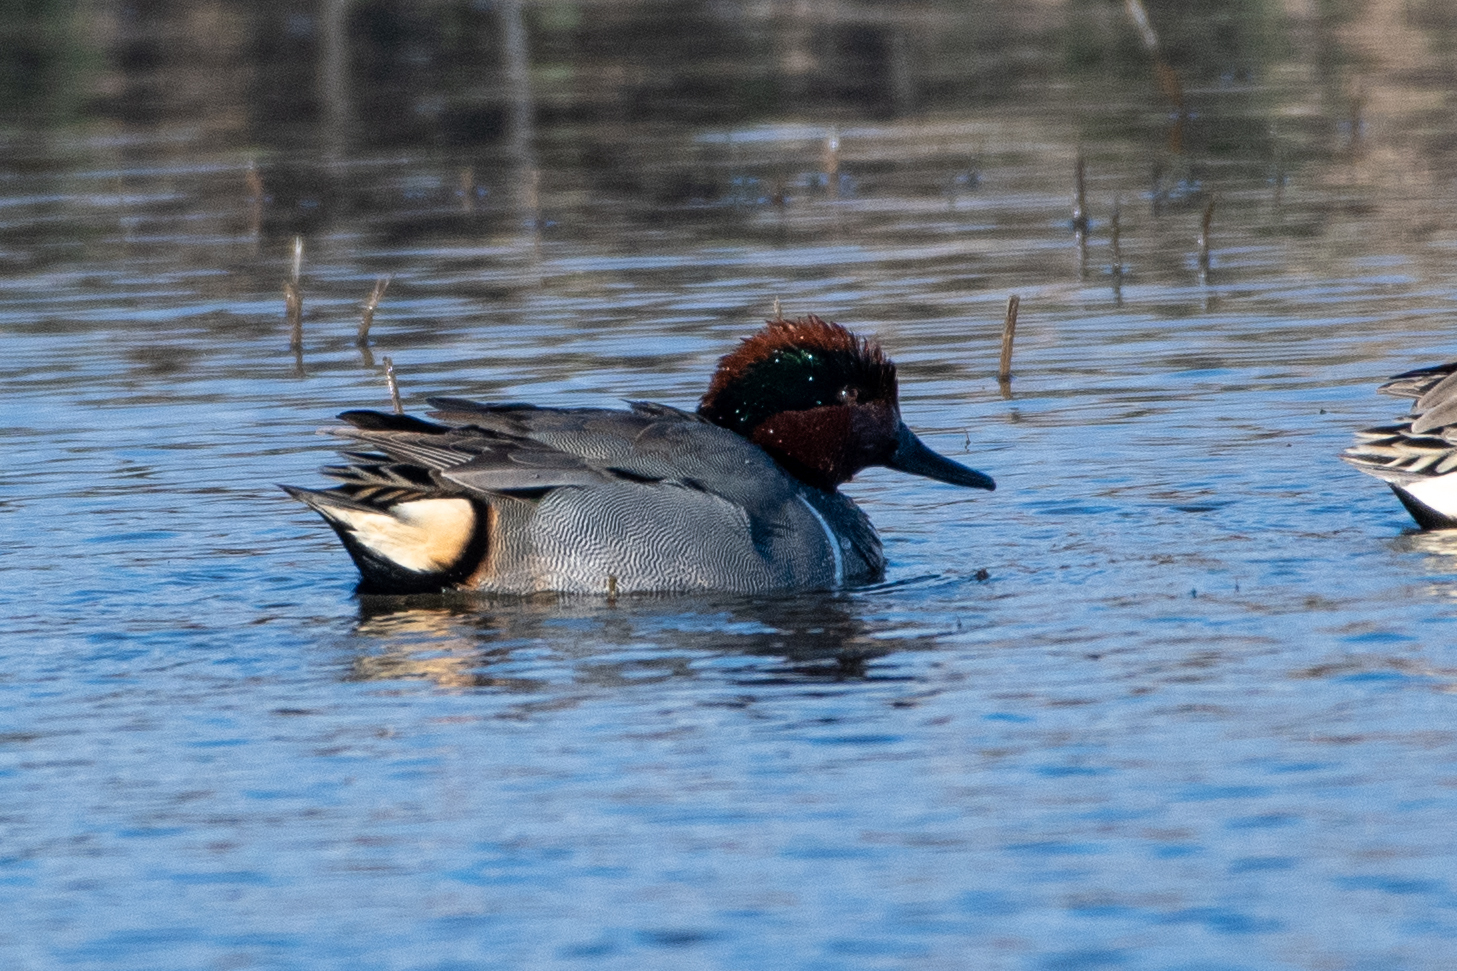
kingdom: Animalia
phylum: Chordata
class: Aves
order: Anseriformes
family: Anatidae
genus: Anas
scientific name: Anas crecca
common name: Eurasian teal
